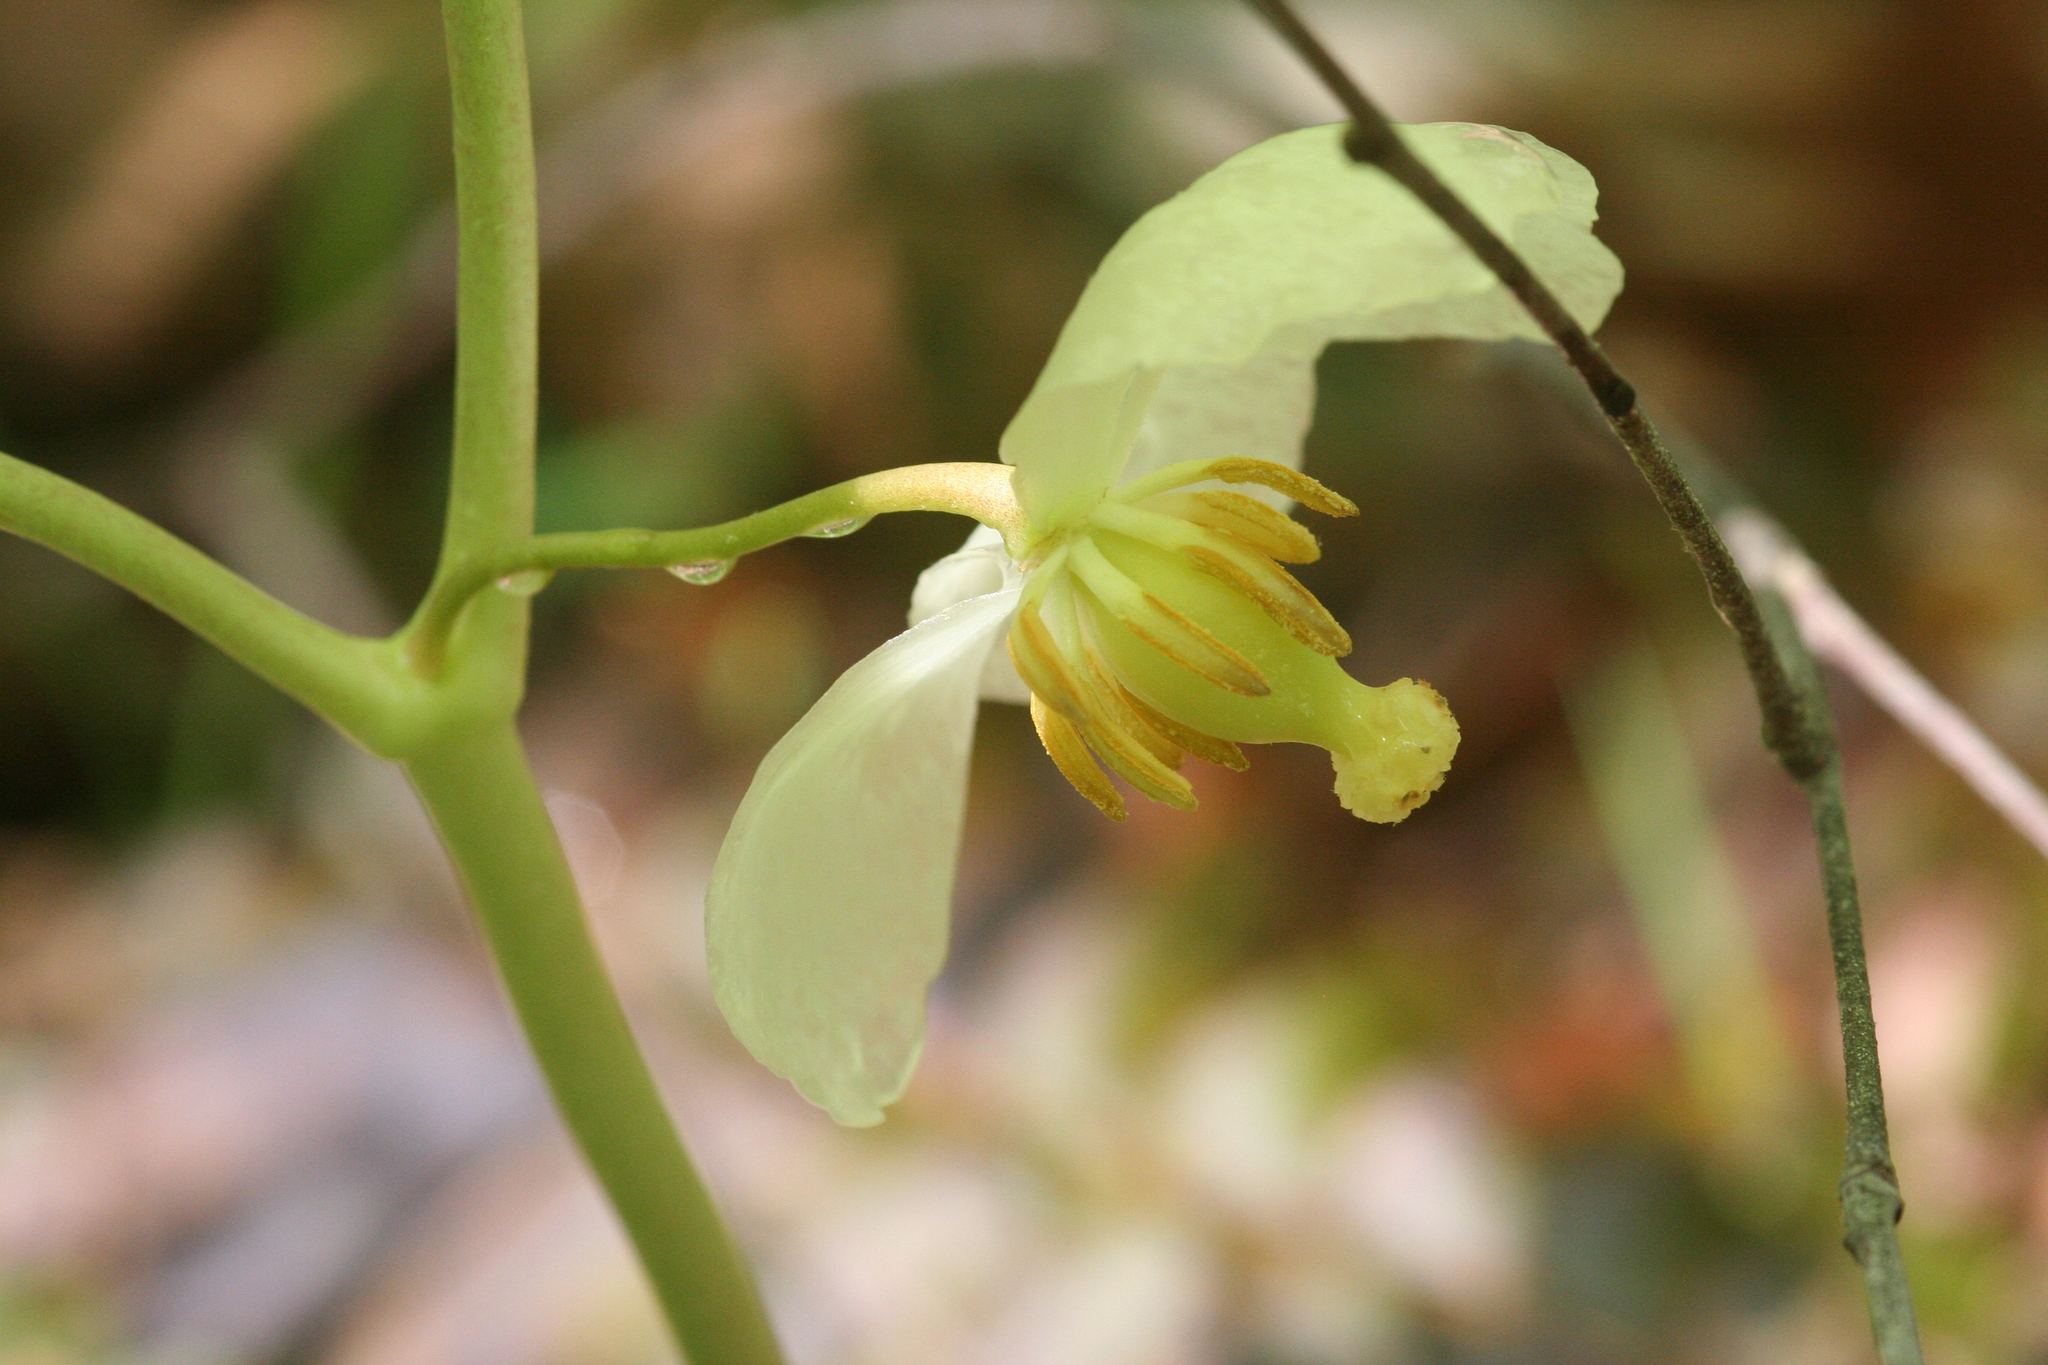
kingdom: Plantae
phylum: Tracheophyta
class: Magnoliopsida
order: Ranunculales
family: Berberidaceae
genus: Podophyllum
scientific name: Podophyllum peltatum
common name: Wild mandrake
